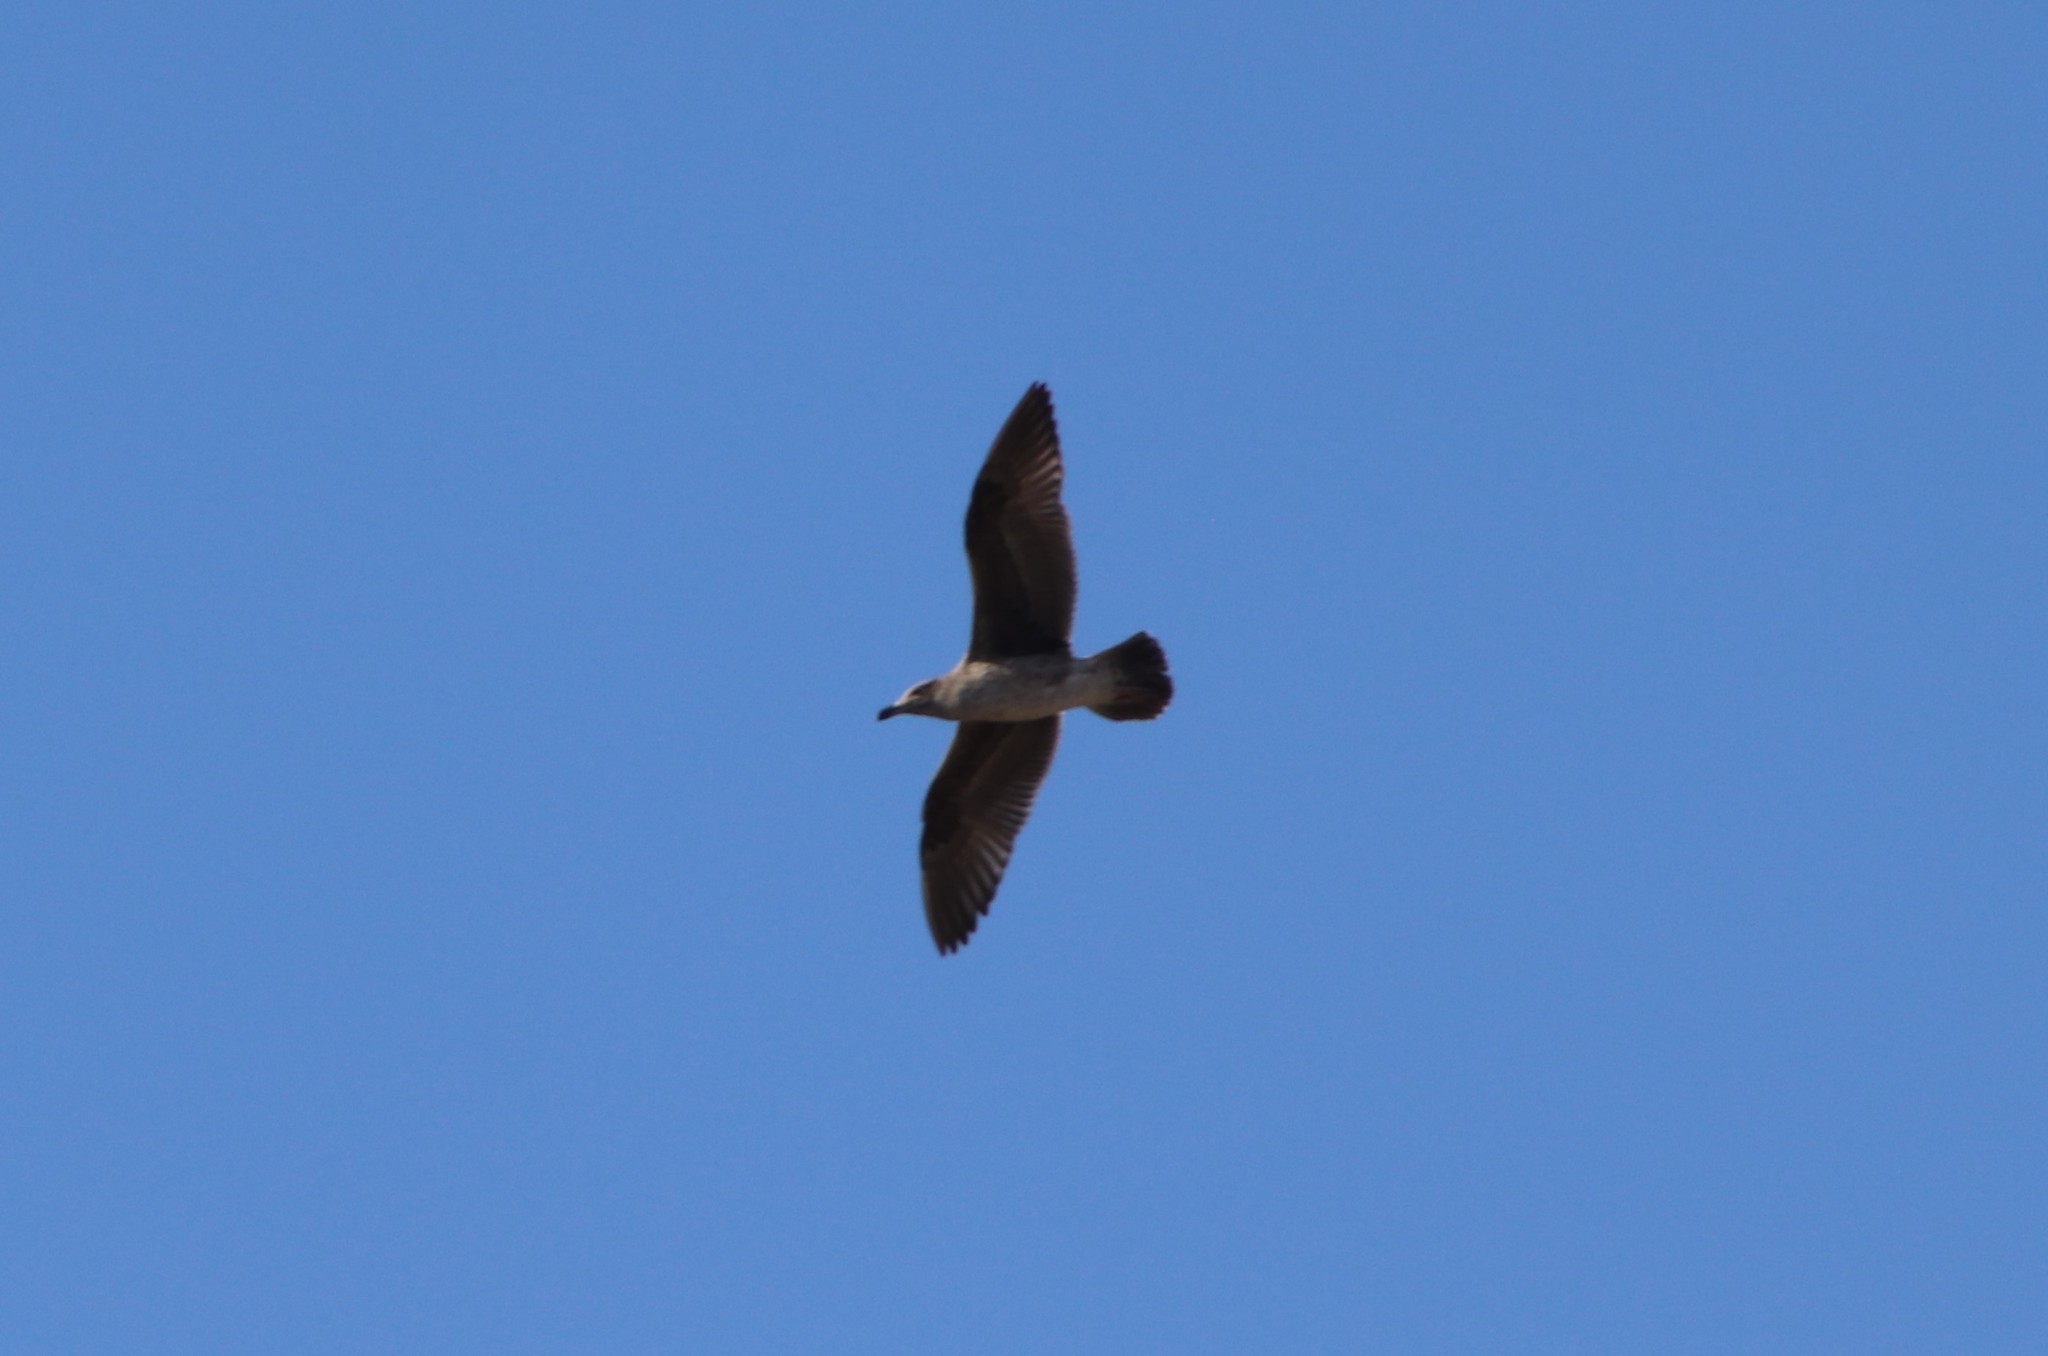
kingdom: Animalia
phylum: Chordata
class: Aves
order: Charadriiformes
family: Laridae
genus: Larus
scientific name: Larus occidentalis
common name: Western gull
